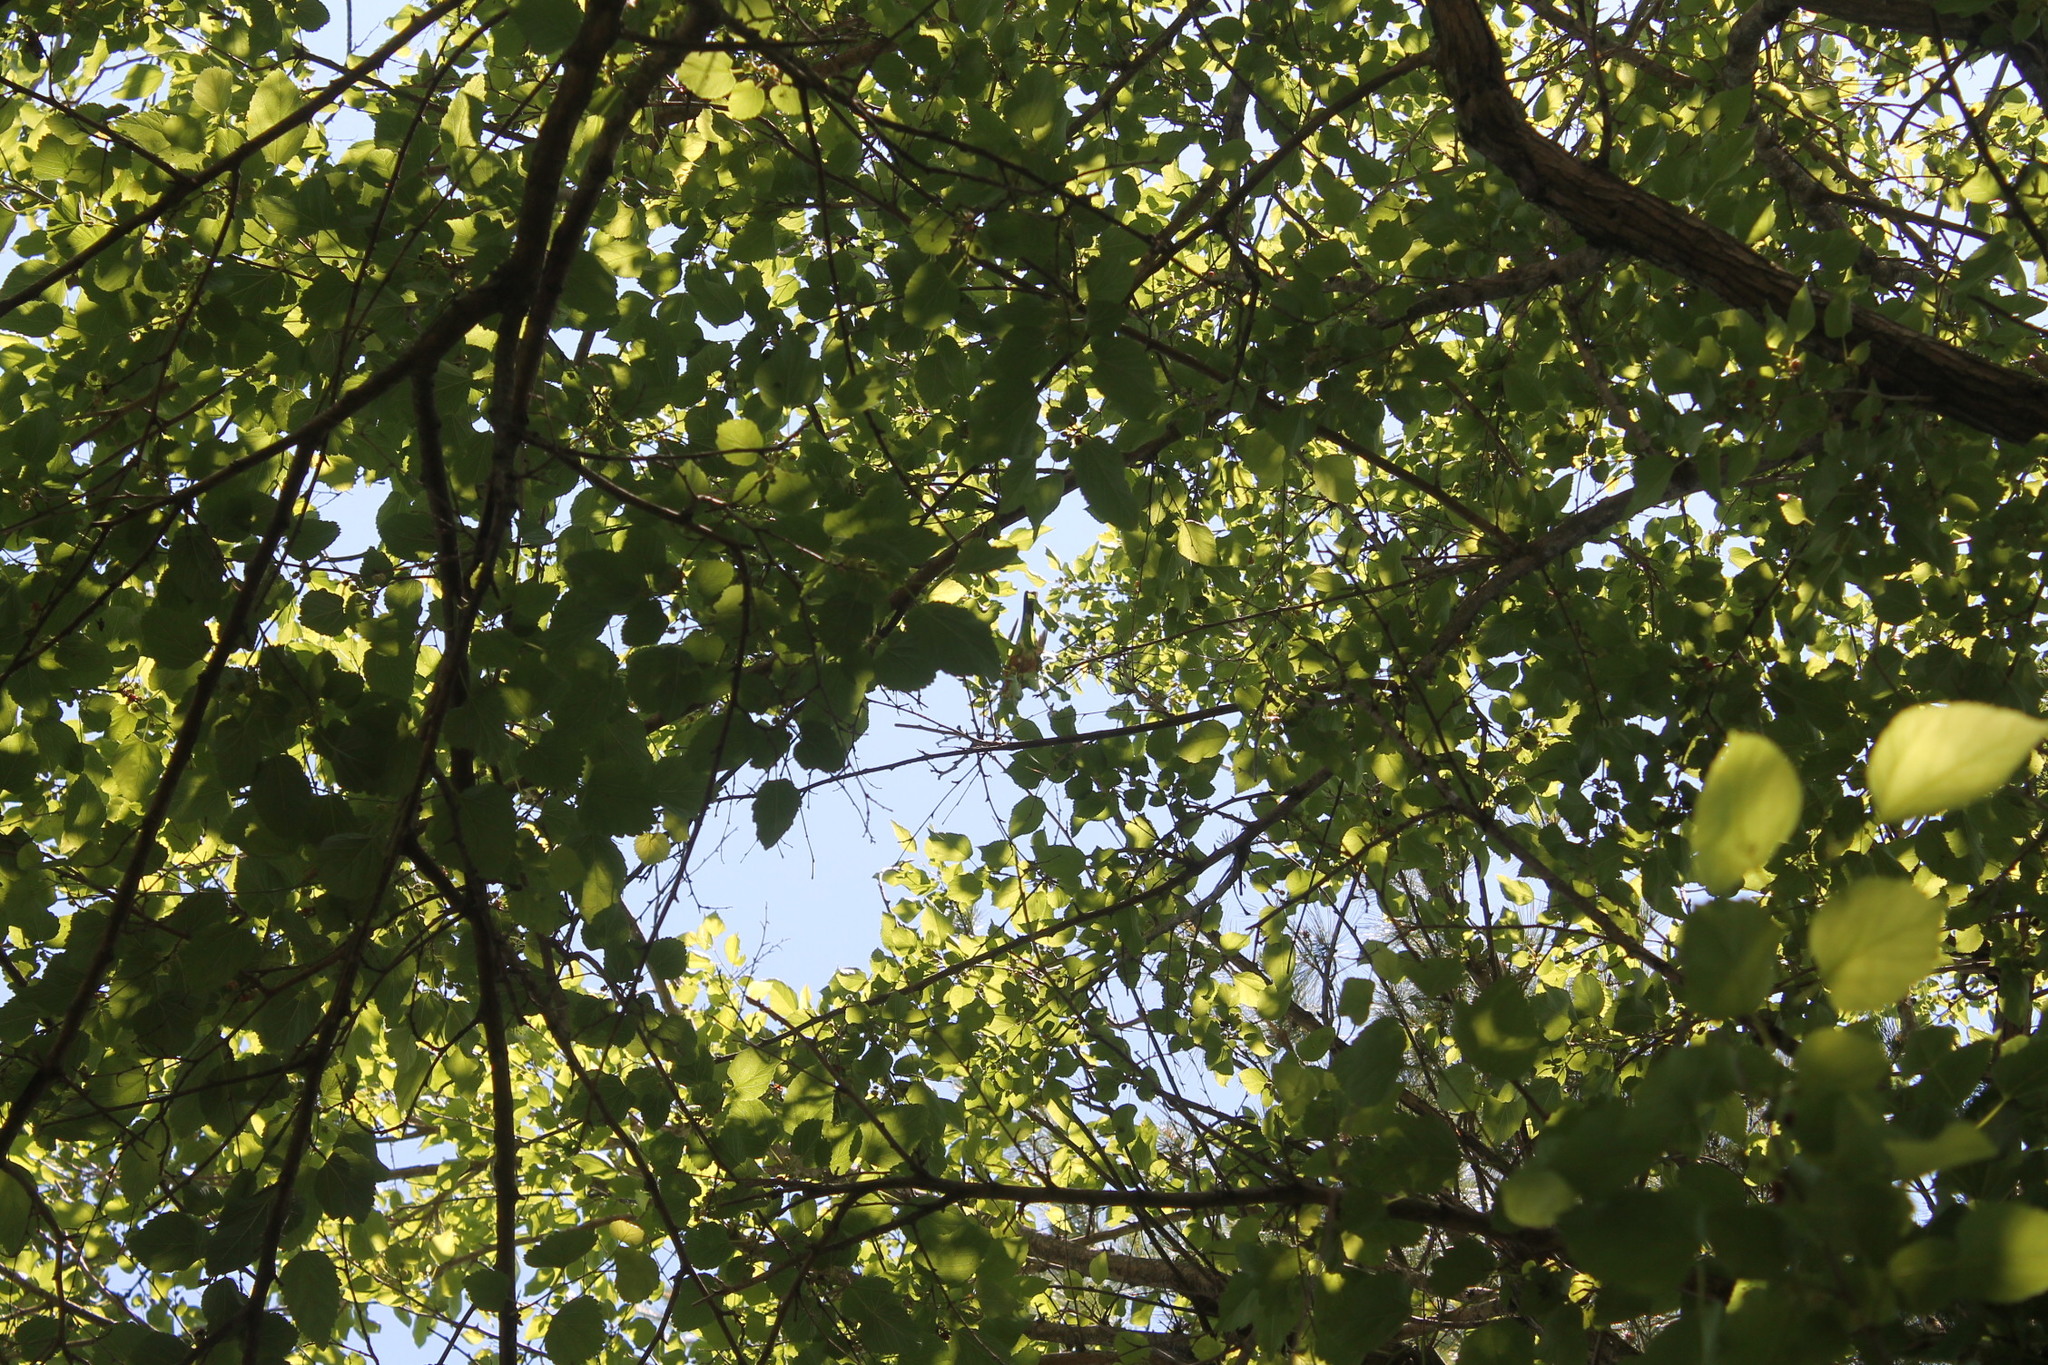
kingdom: Animalia
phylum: Chordata
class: Aves
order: Passeriformes
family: Turdidae
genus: Turdus
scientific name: Turdus migratorius
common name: American robin
